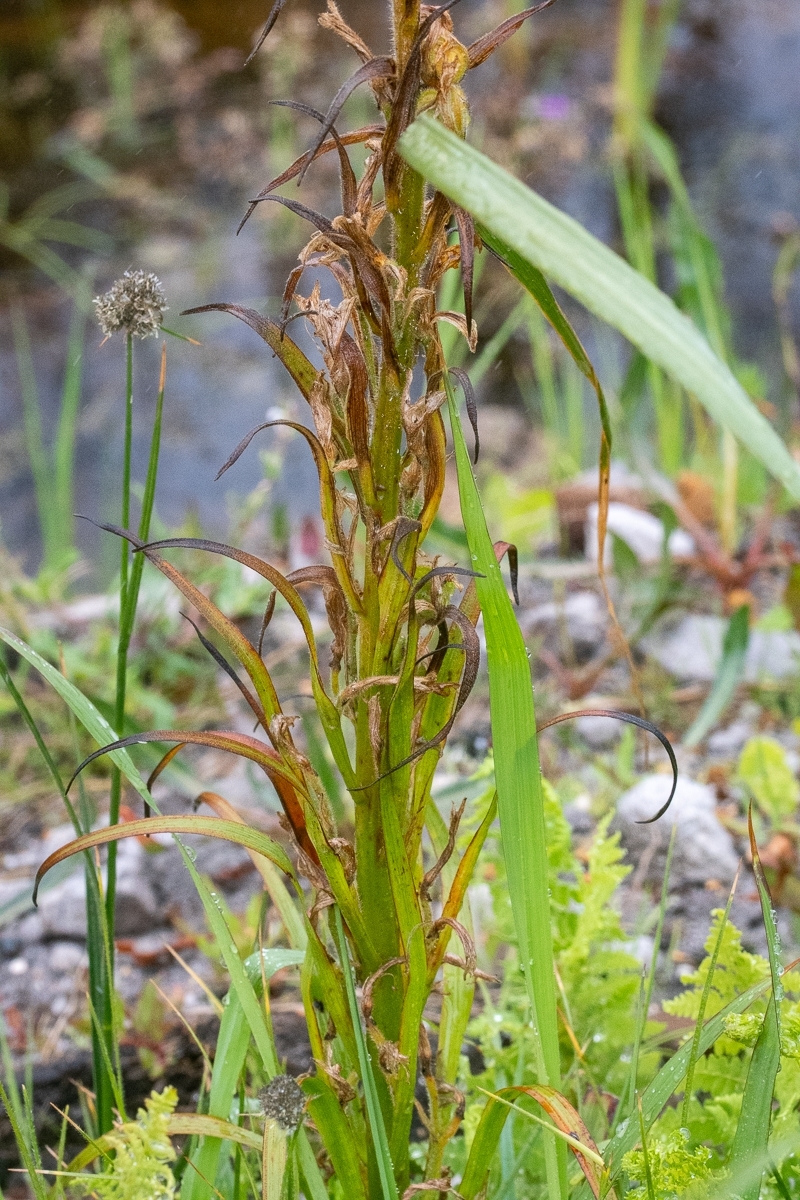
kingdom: Plantae
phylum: Tracheophyta
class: Liliopsida
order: Commelinales
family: Haemodoraceae
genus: Wachendorfia
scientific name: Wachendorfia thyrsiflora
